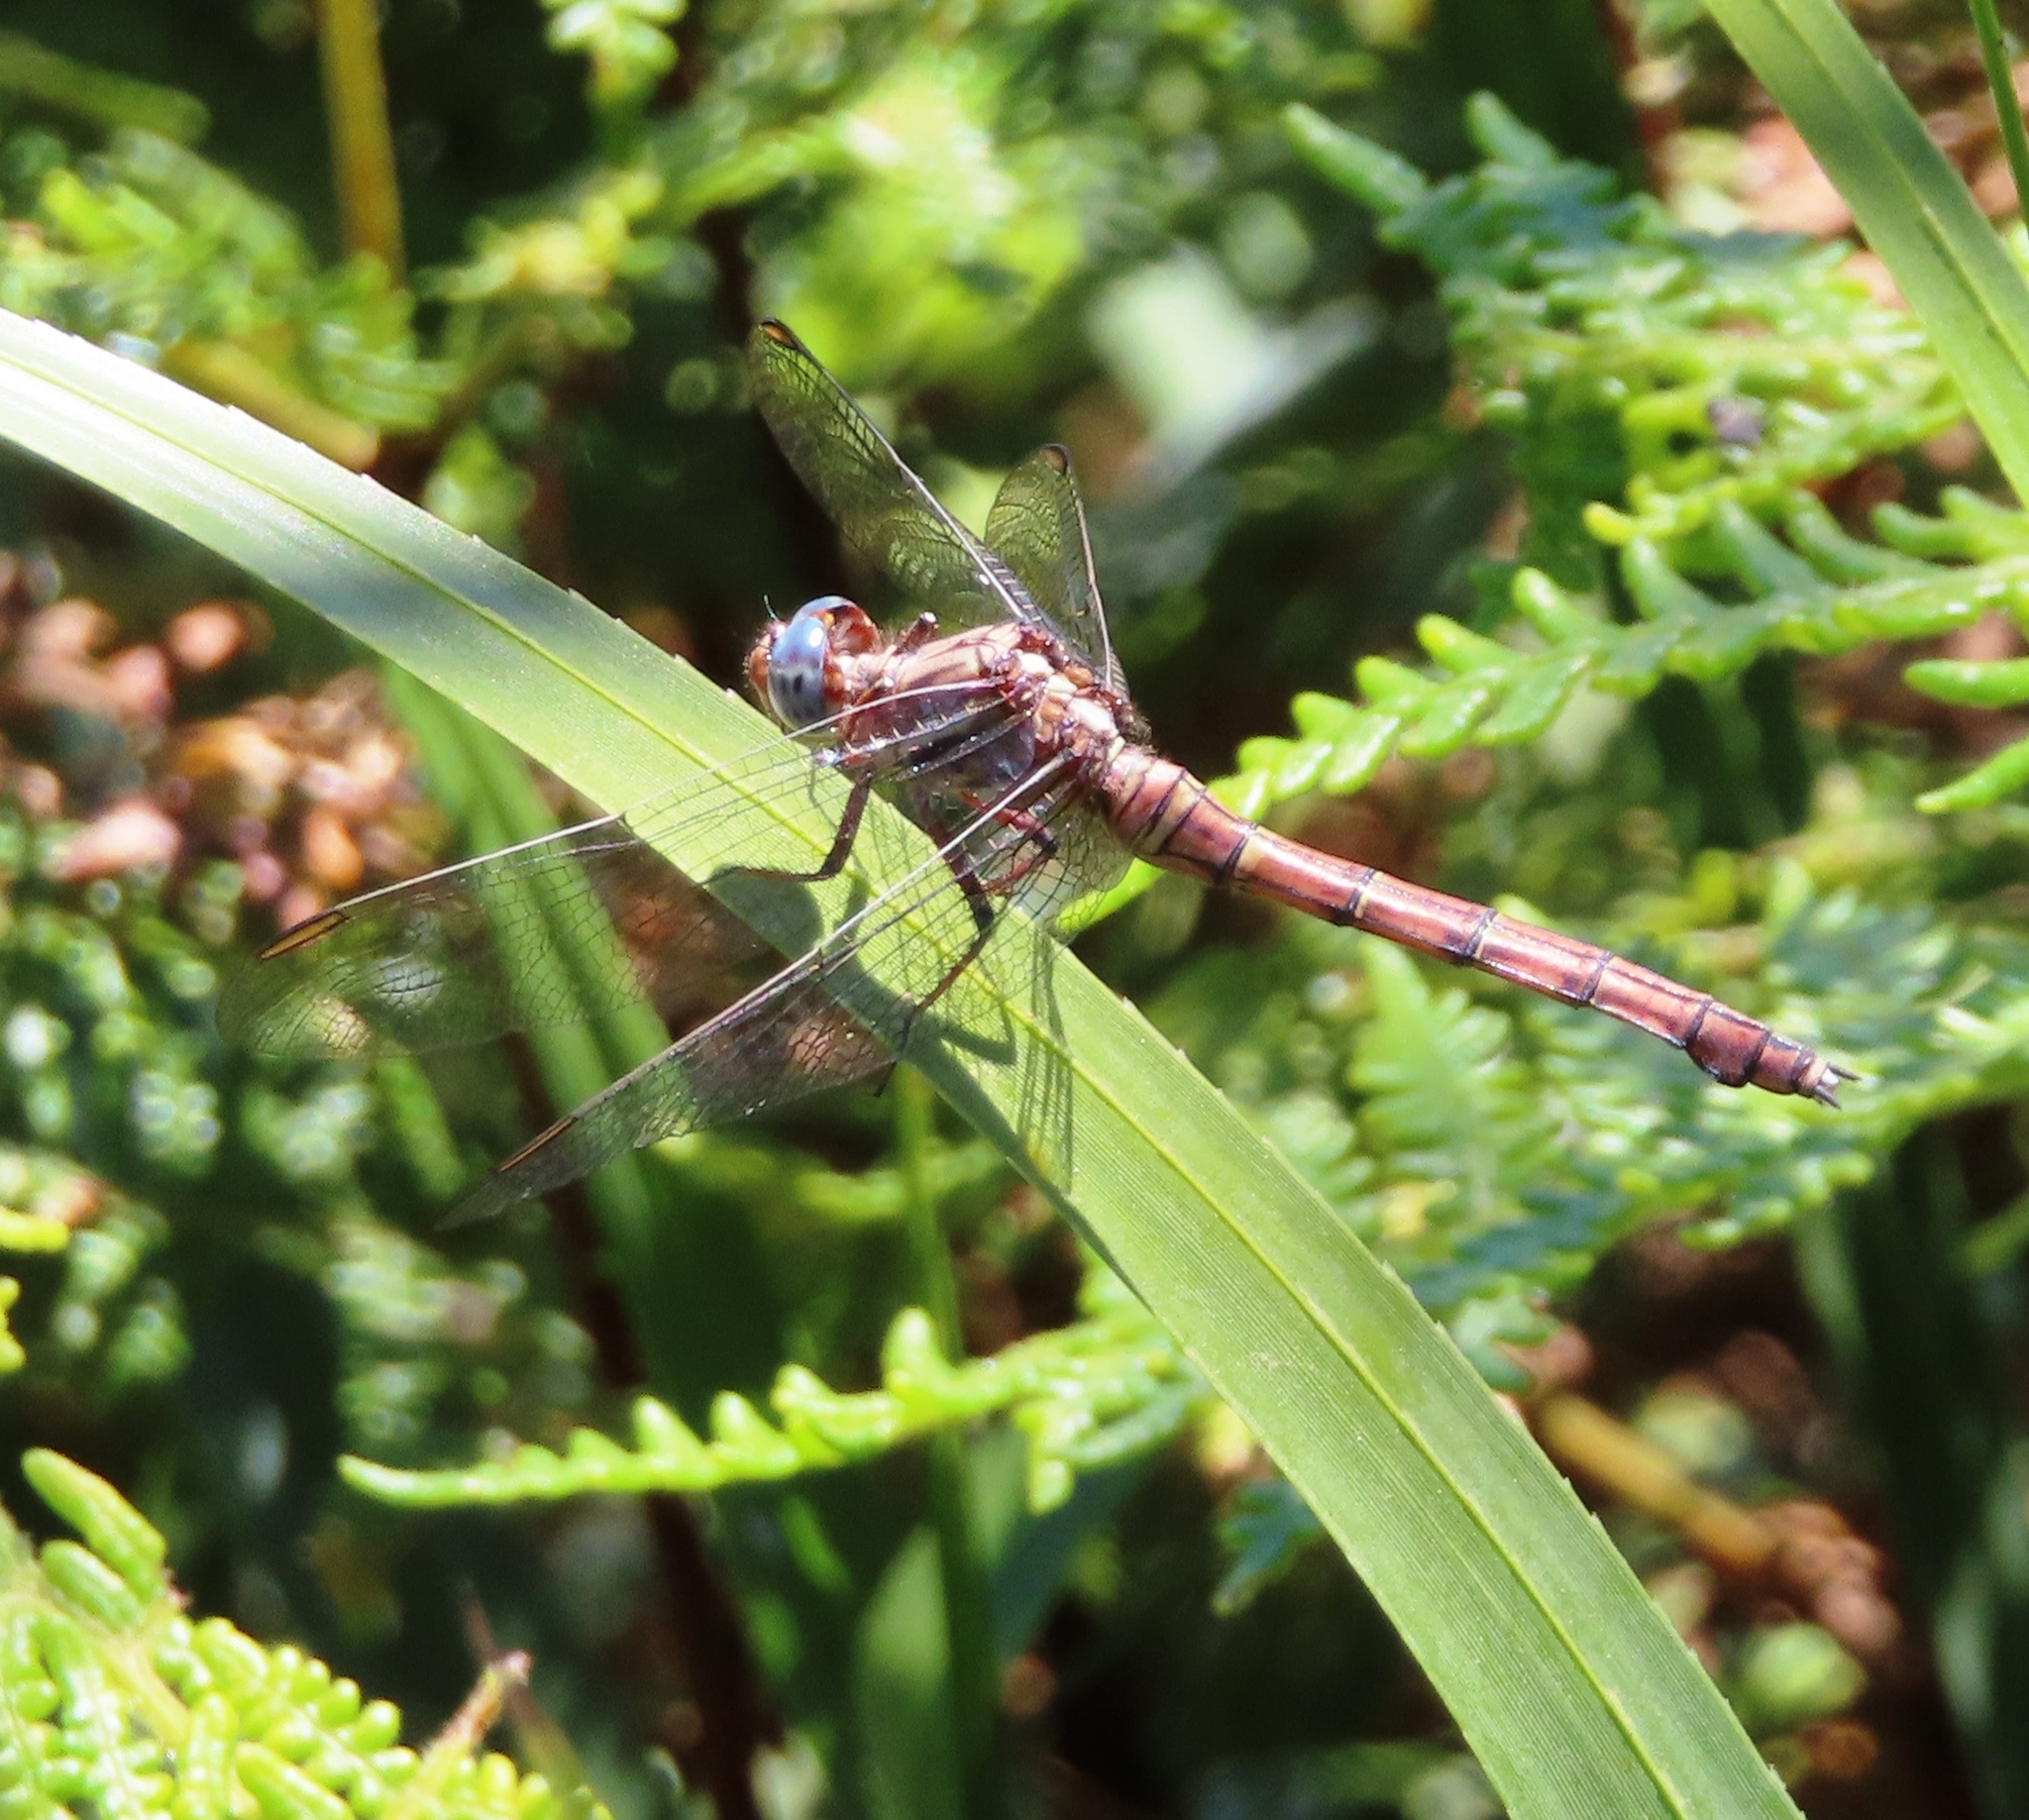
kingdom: Animalia
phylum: Arthropoda
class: Insecta
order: Odonata
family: Libellulidae
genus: Orthetrum
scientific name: Orthetrum julia
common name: Julia skimmer
